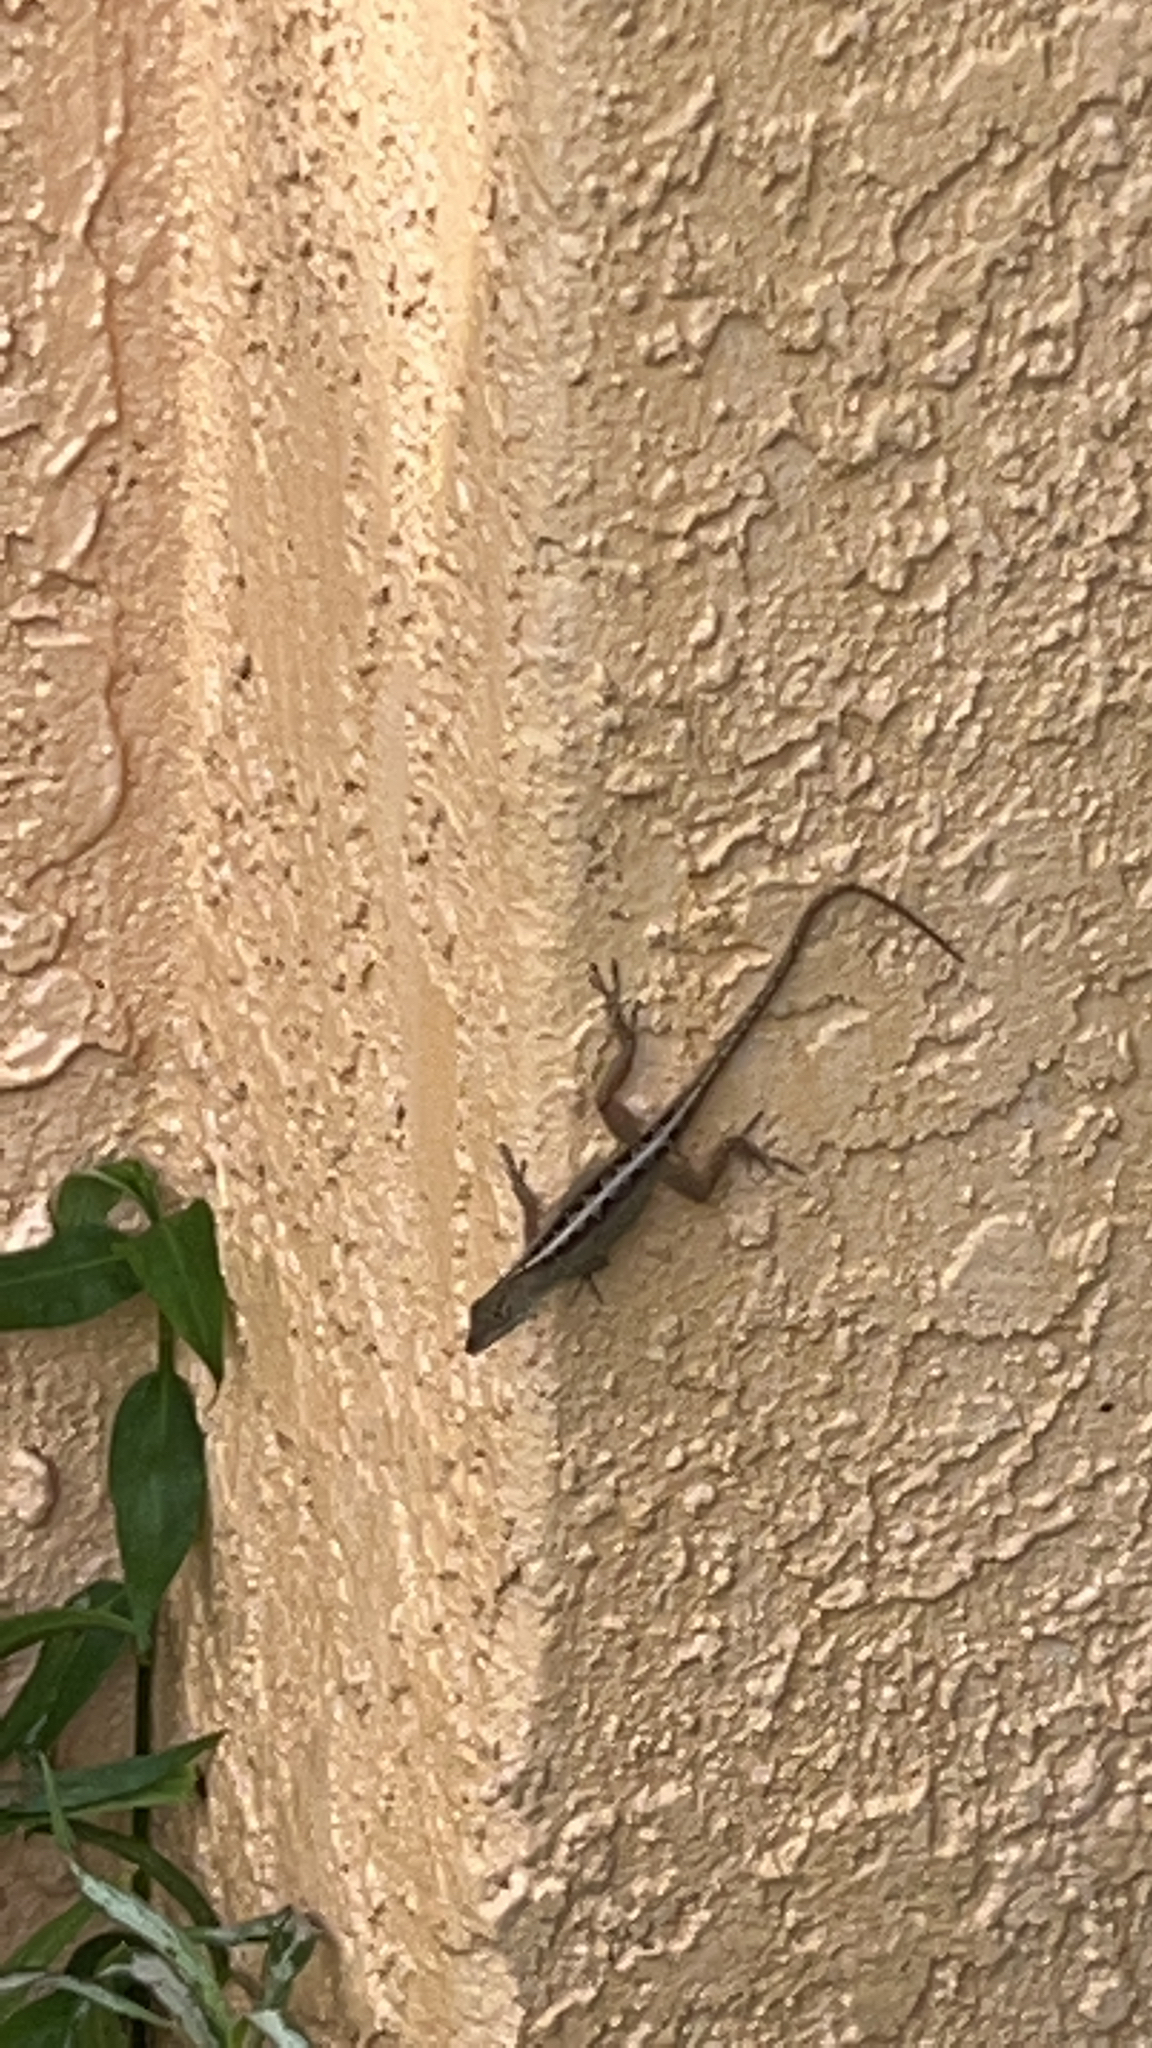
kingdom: Animalia
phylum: Chordata
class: Squamata
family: Dactyloidae
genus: Anolis
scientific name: Anolis sagrei
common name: Brown anole
